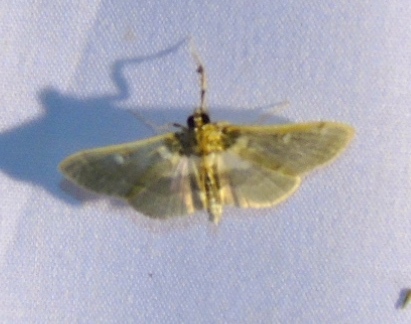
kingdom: Animalia
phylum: Arthropoda
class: Insecta
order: Lepidoptera
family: Crambidae
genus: Apilocrocis
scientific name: Apilocrocis brumalis
